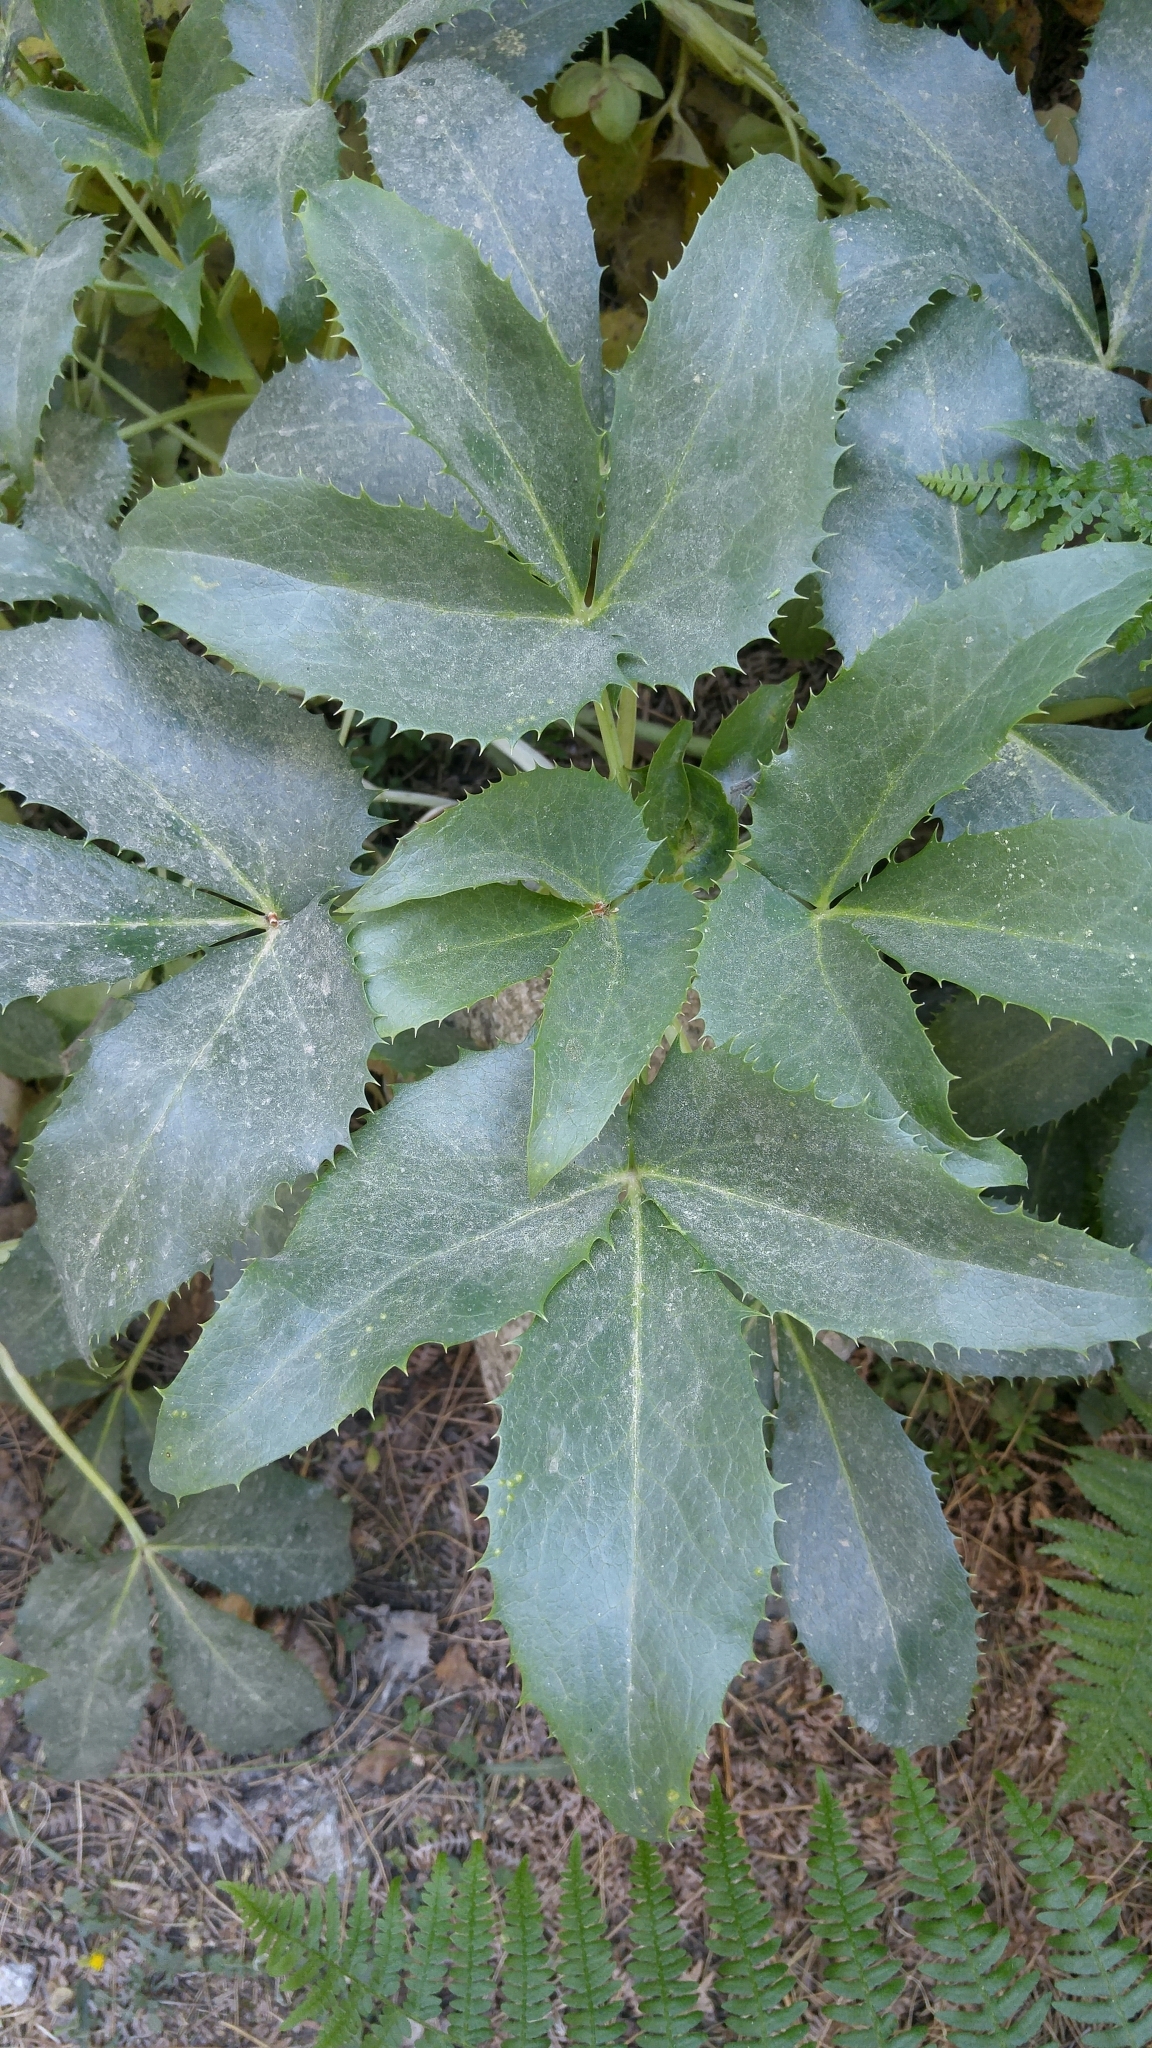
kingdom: Plantae
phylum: Tracheophyta
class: Magnoliopsida
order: Ranunculales
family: Ranunculaceae
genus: Helleborus
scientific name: Helleborus argutifolius
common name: Corsican hellebore
